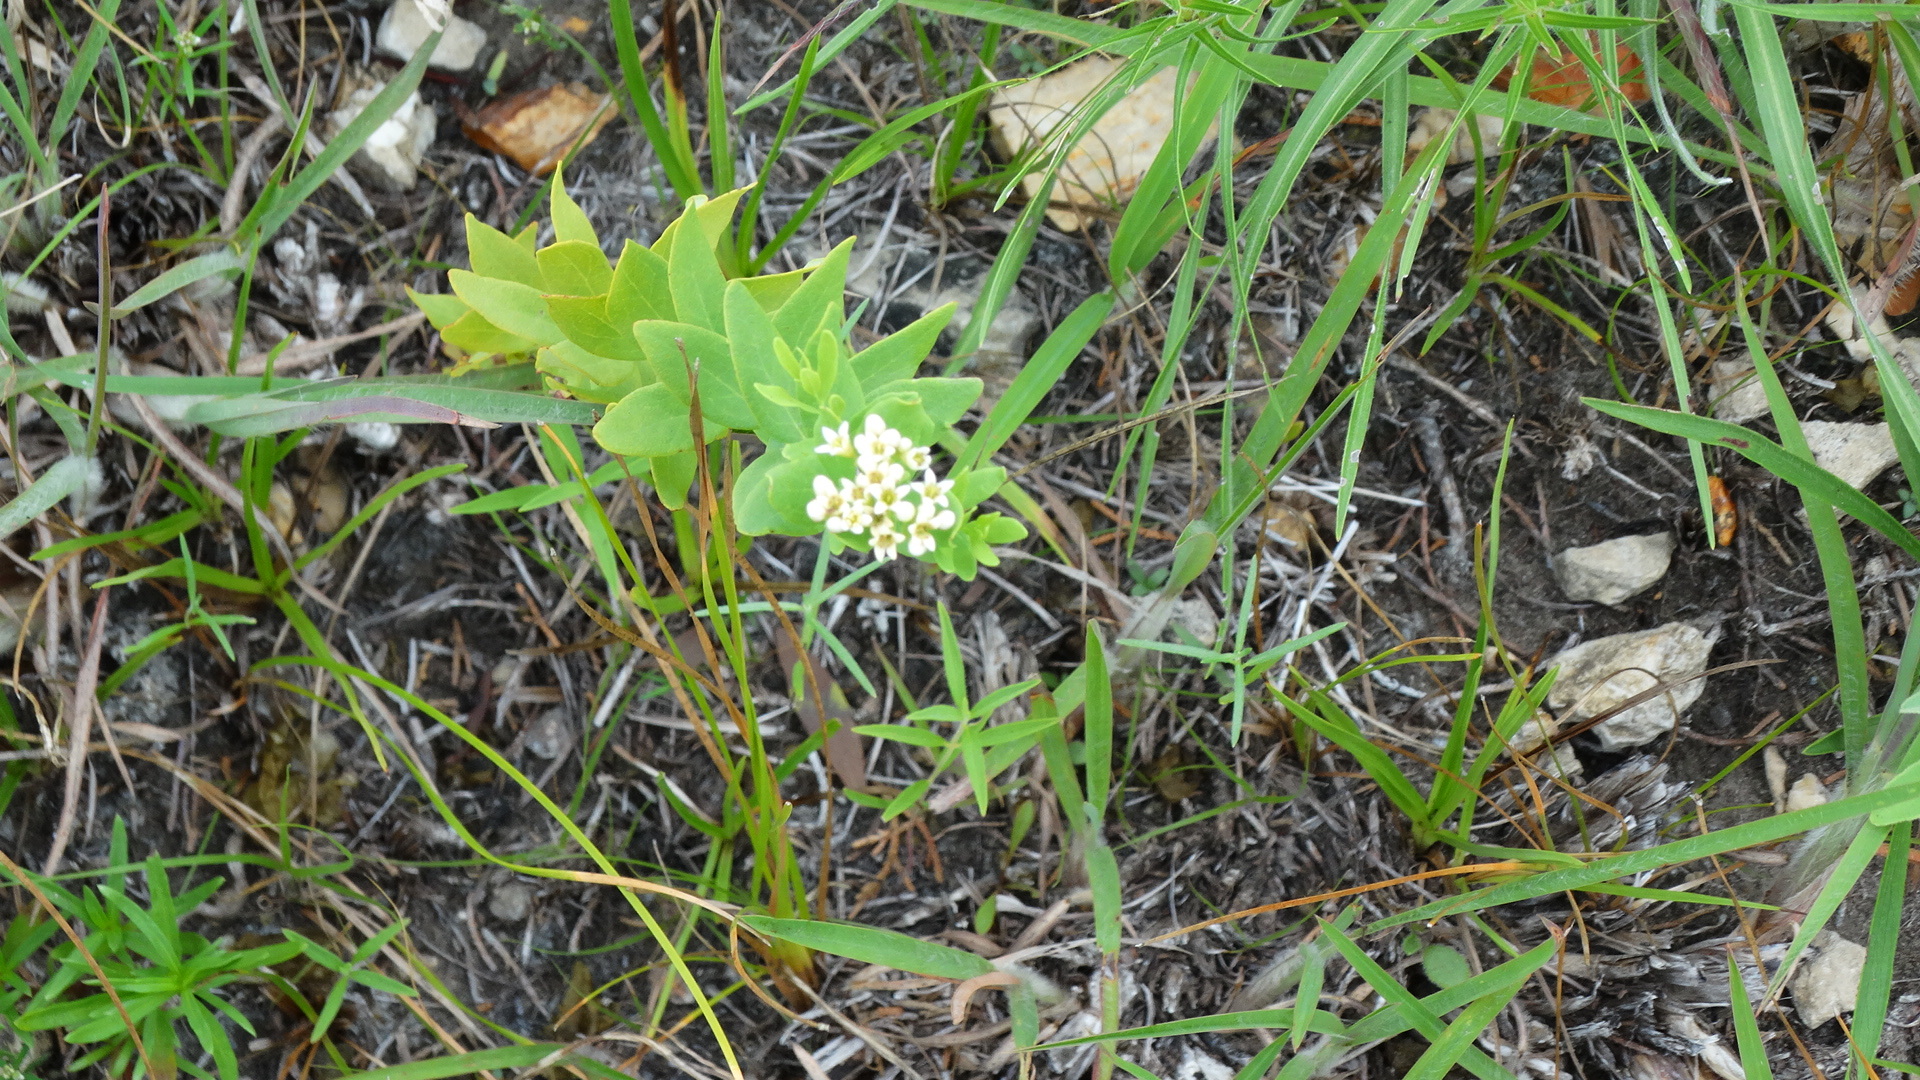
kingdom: Plantae
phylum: Tracheophyta
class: Magnoliopsida
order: Santalales
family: Comandraceae
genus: Comandra
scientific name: Comandra umbellata
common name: Bastard toadflax
